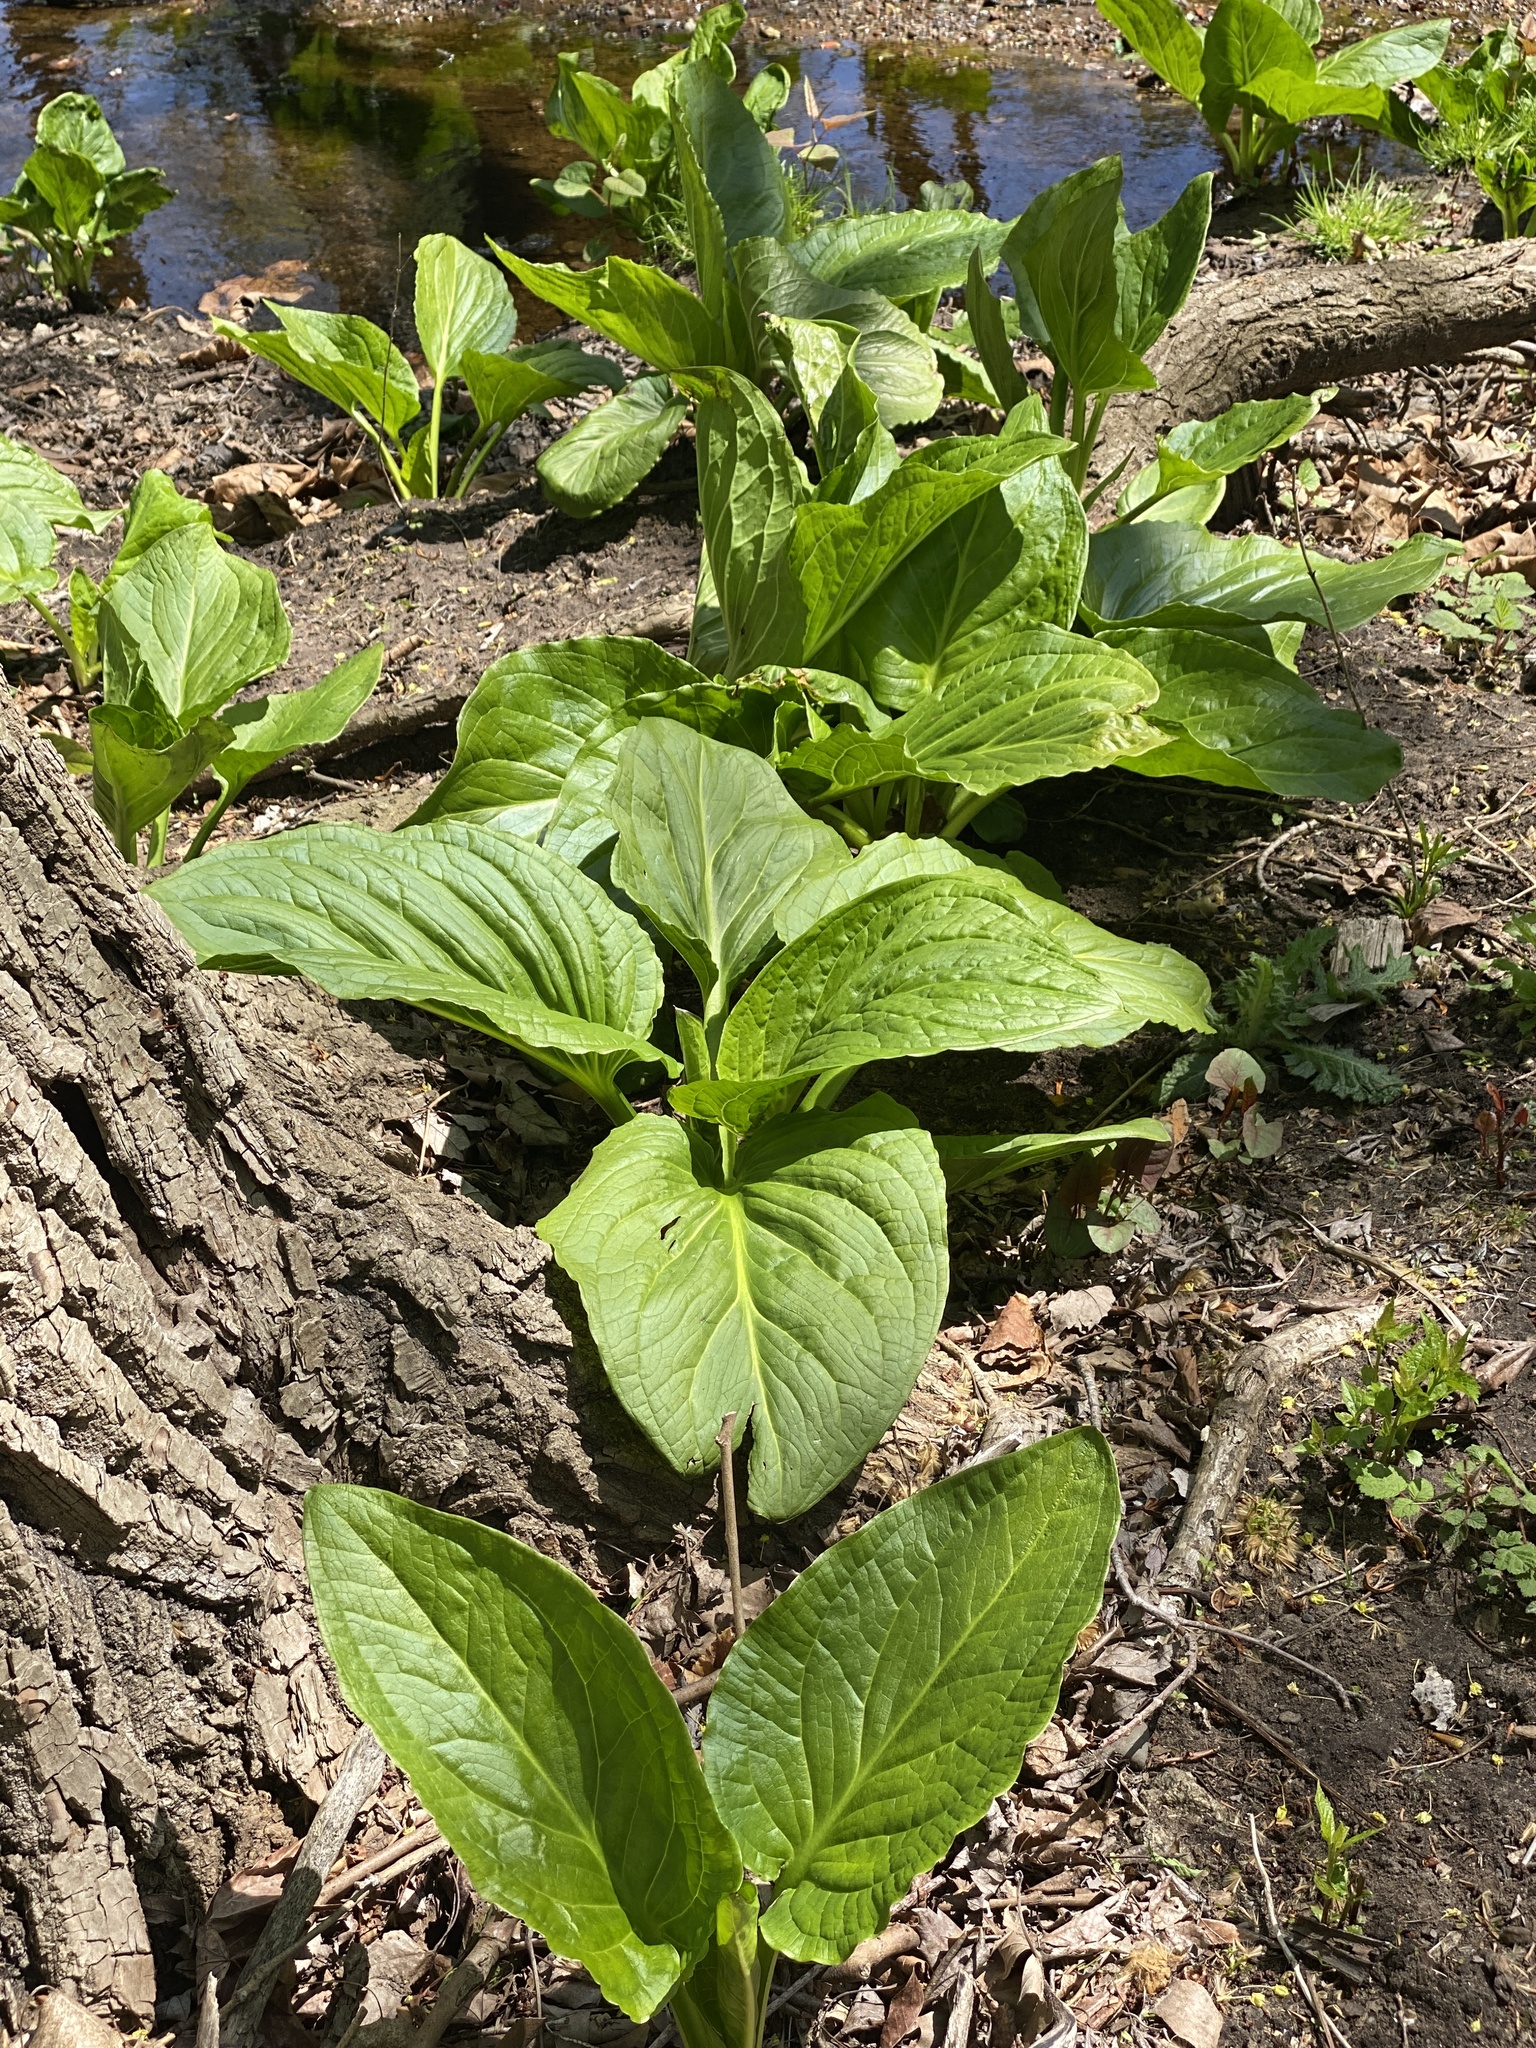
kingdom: Plantae
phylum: Tracheophyta
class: Liliopsida
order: Alismatales
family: Araceae
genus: Symplocarpus
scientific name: Symplocarpus foetidus
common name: Eastern skunk cabbage
